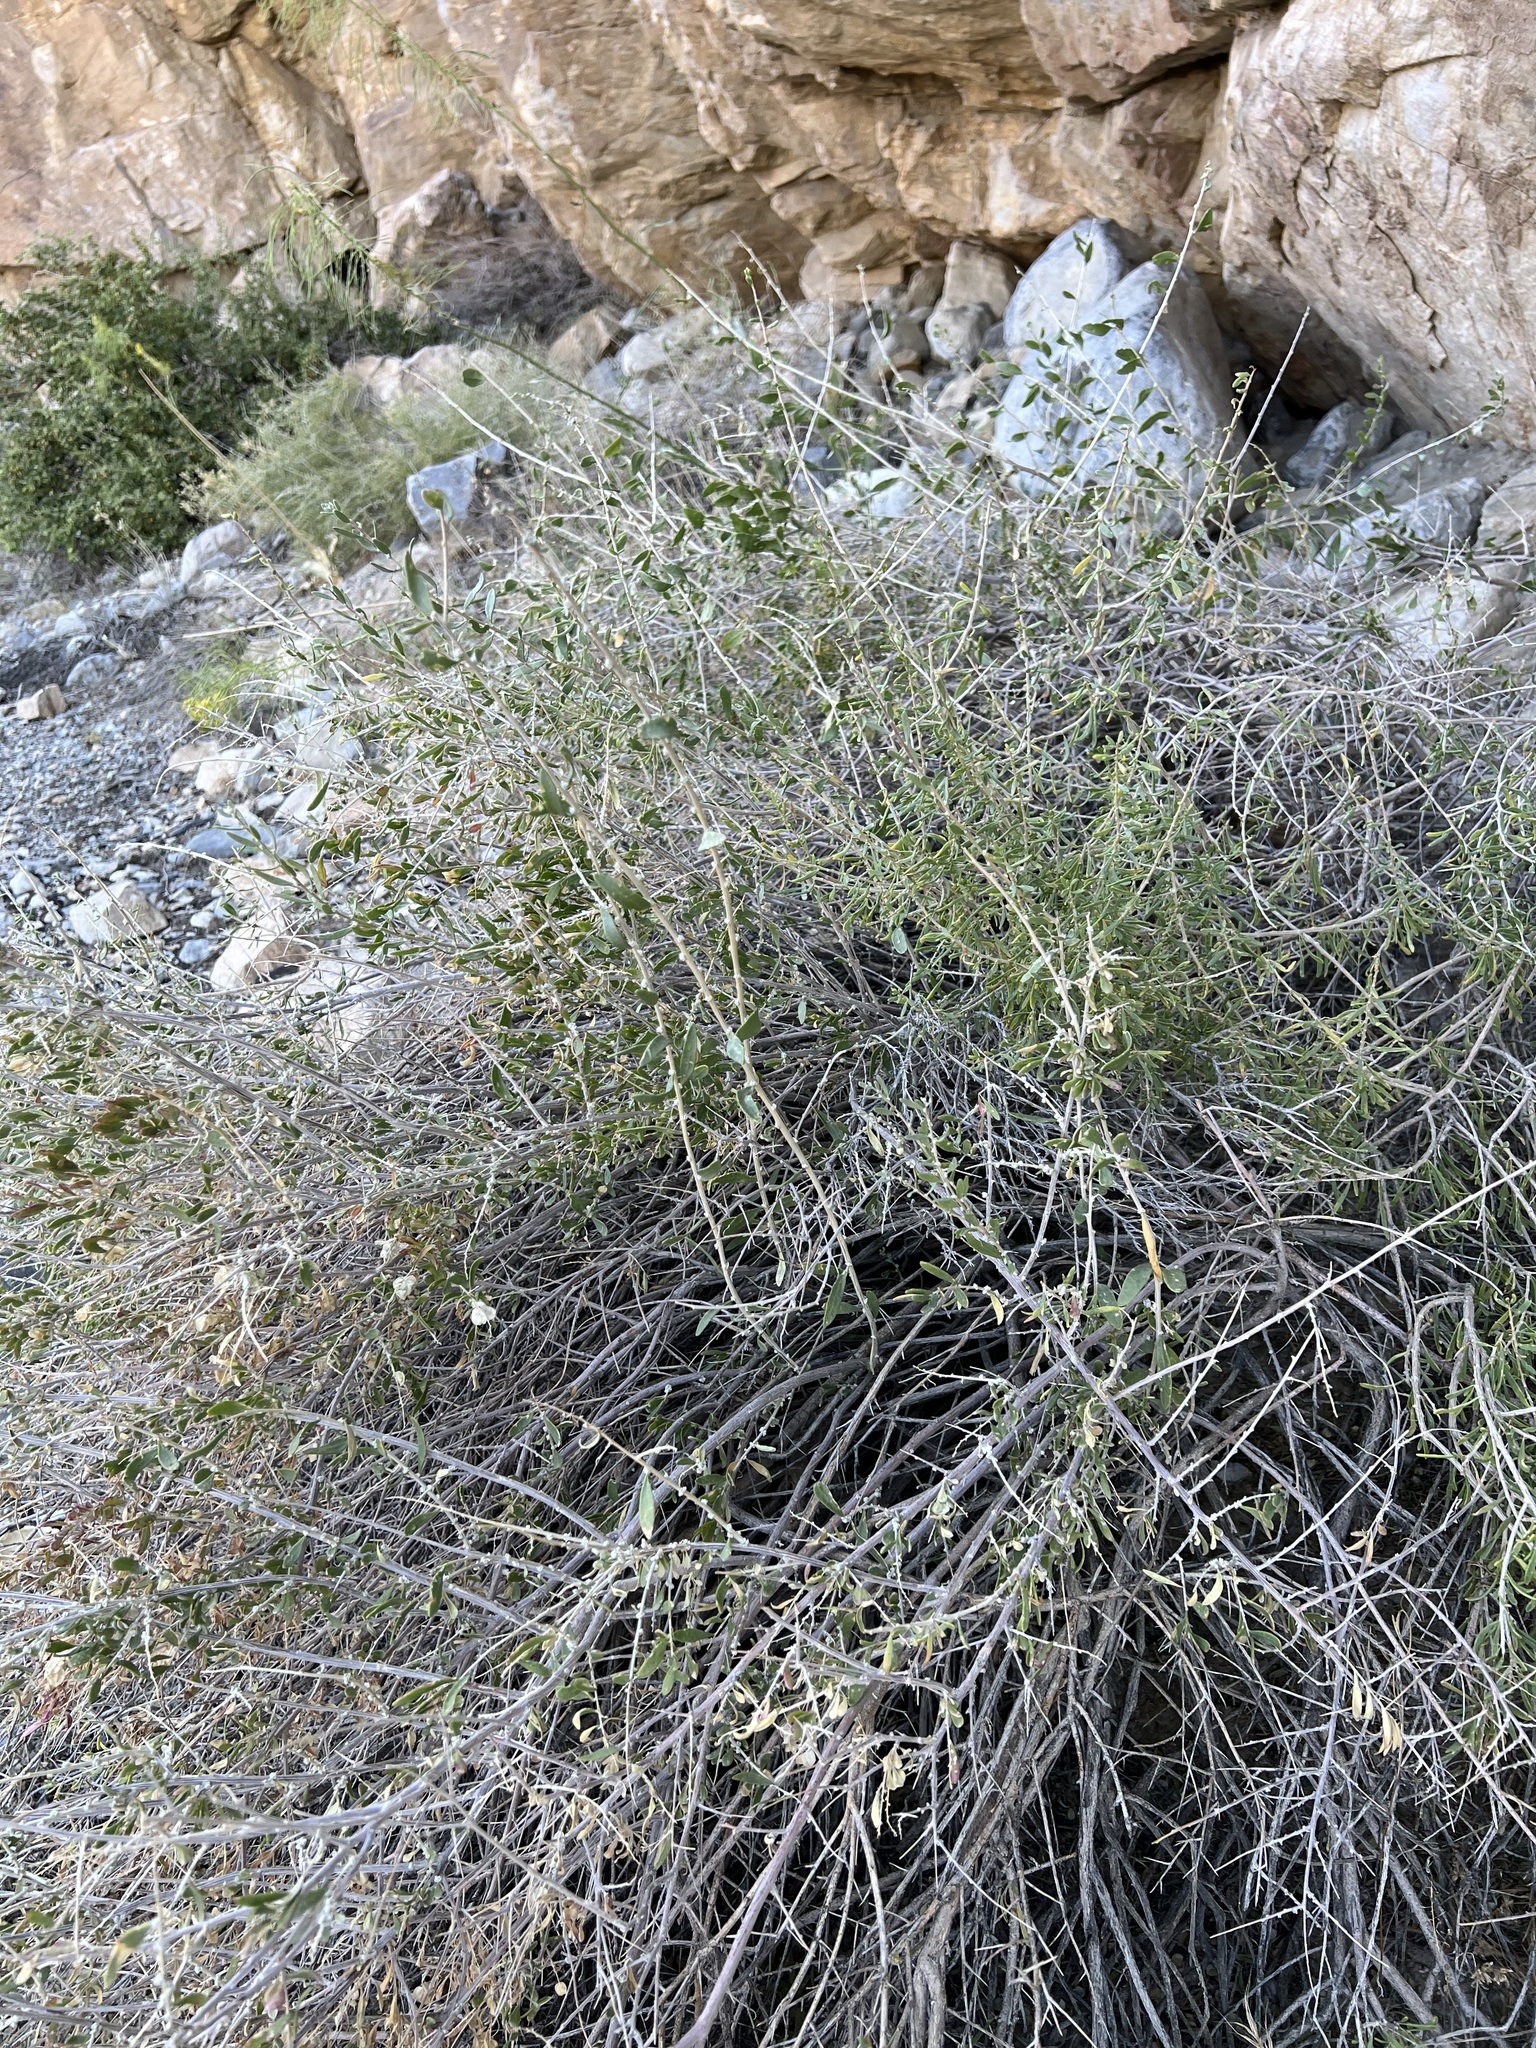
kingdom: Plantae
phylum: Tracheophyta
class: Magnoliopsida
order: Caryophyllales
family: Amaranthaceae
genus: Grayia
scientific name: Grayia spinosa
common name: Spiny hopsage
